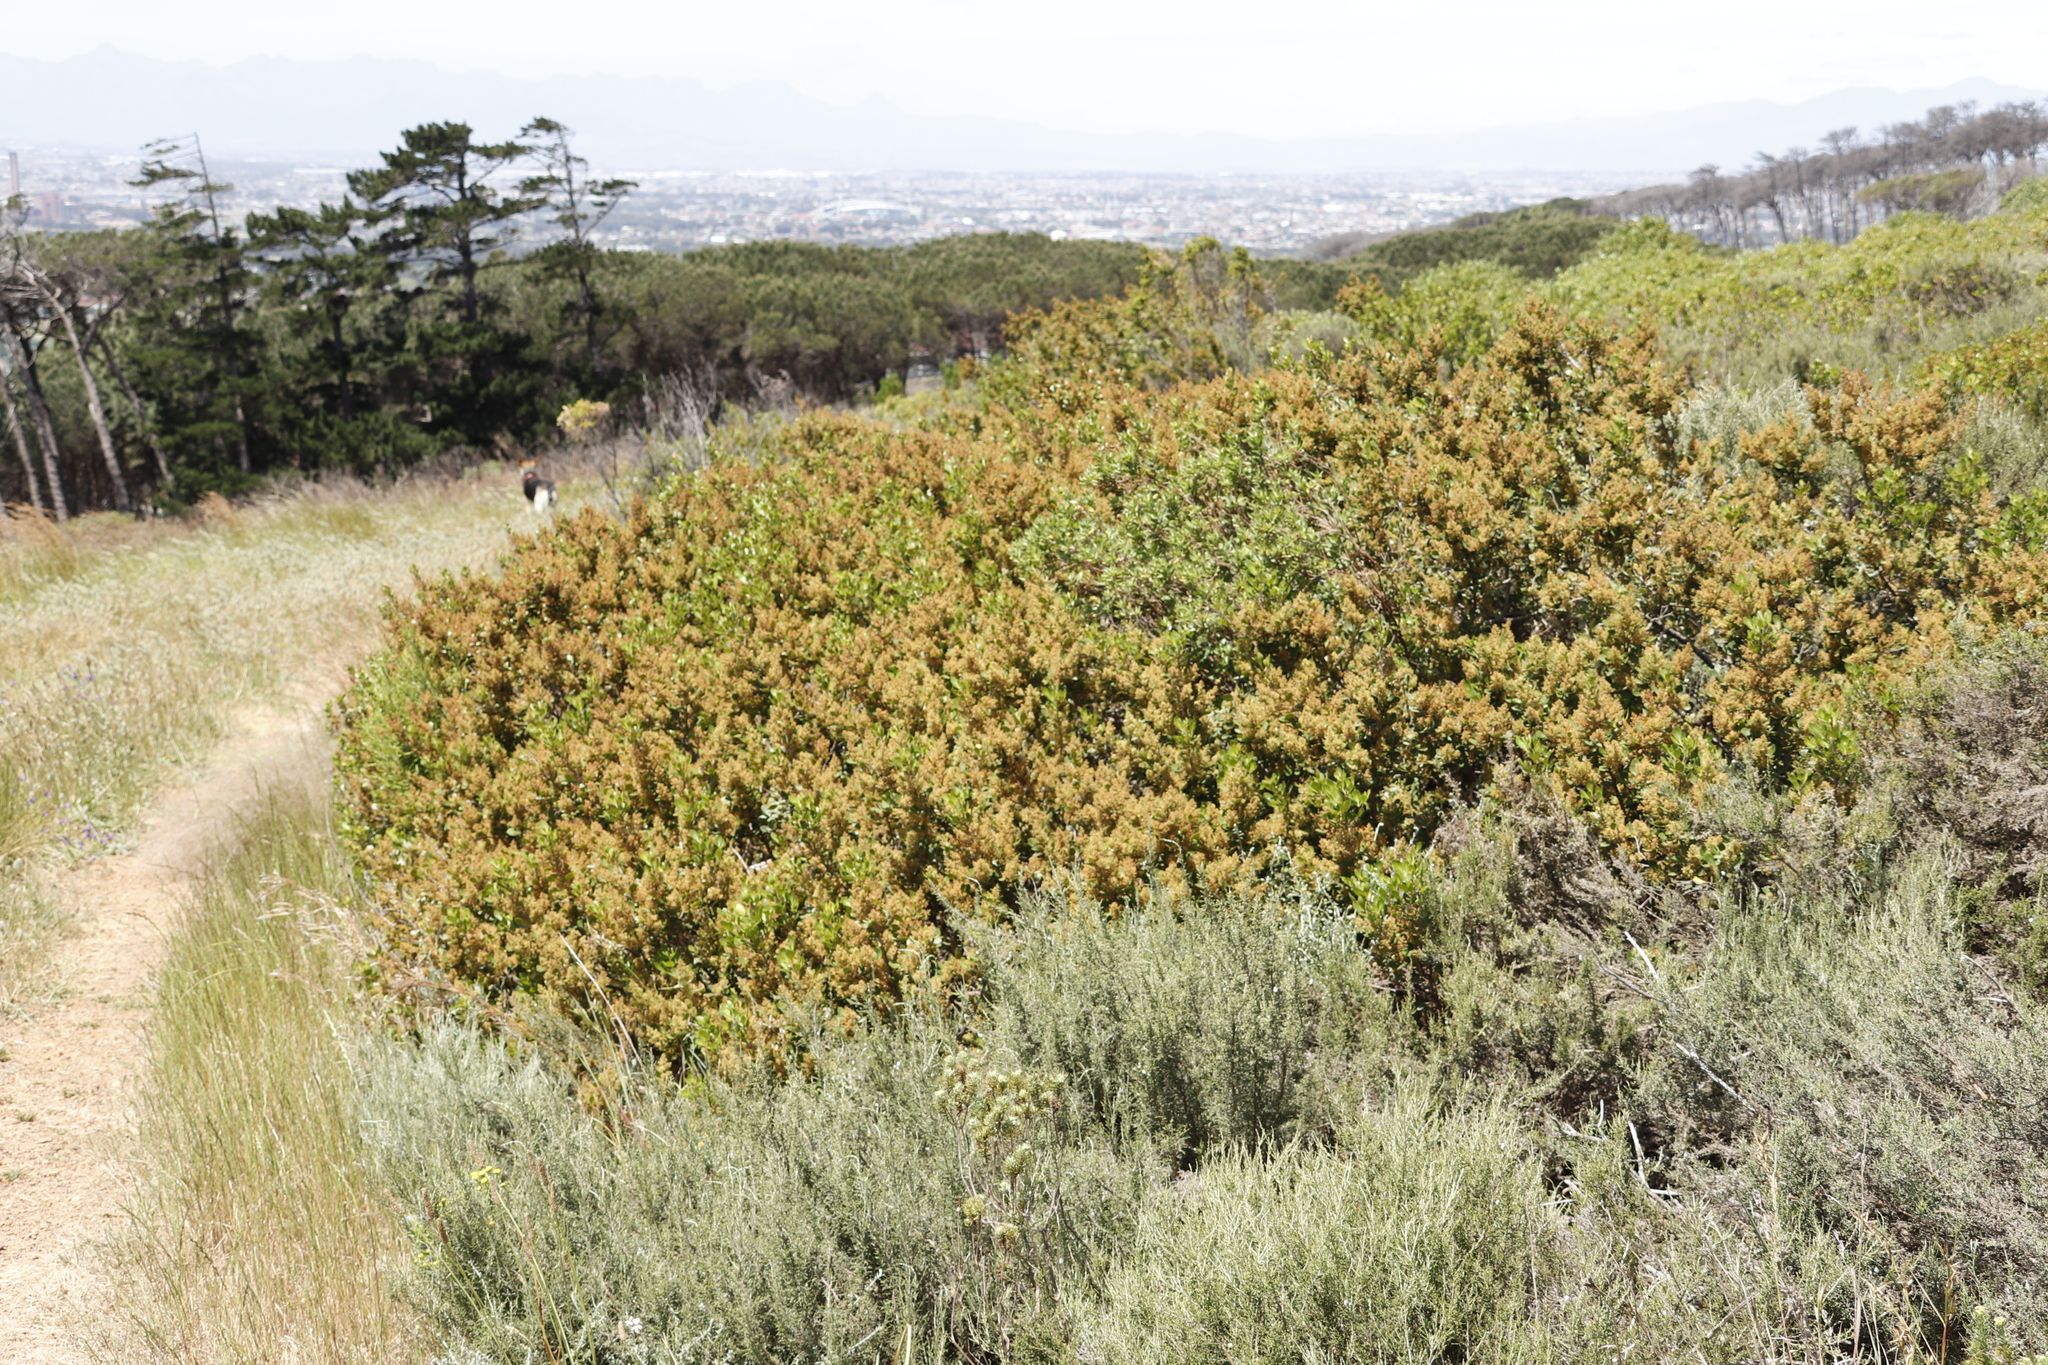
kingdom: Plantae
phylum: Tracheophyta
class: Magnoliopsida
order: Sapindales
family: Anacardiaceae
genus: Searsia
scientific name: Searsia lucida
